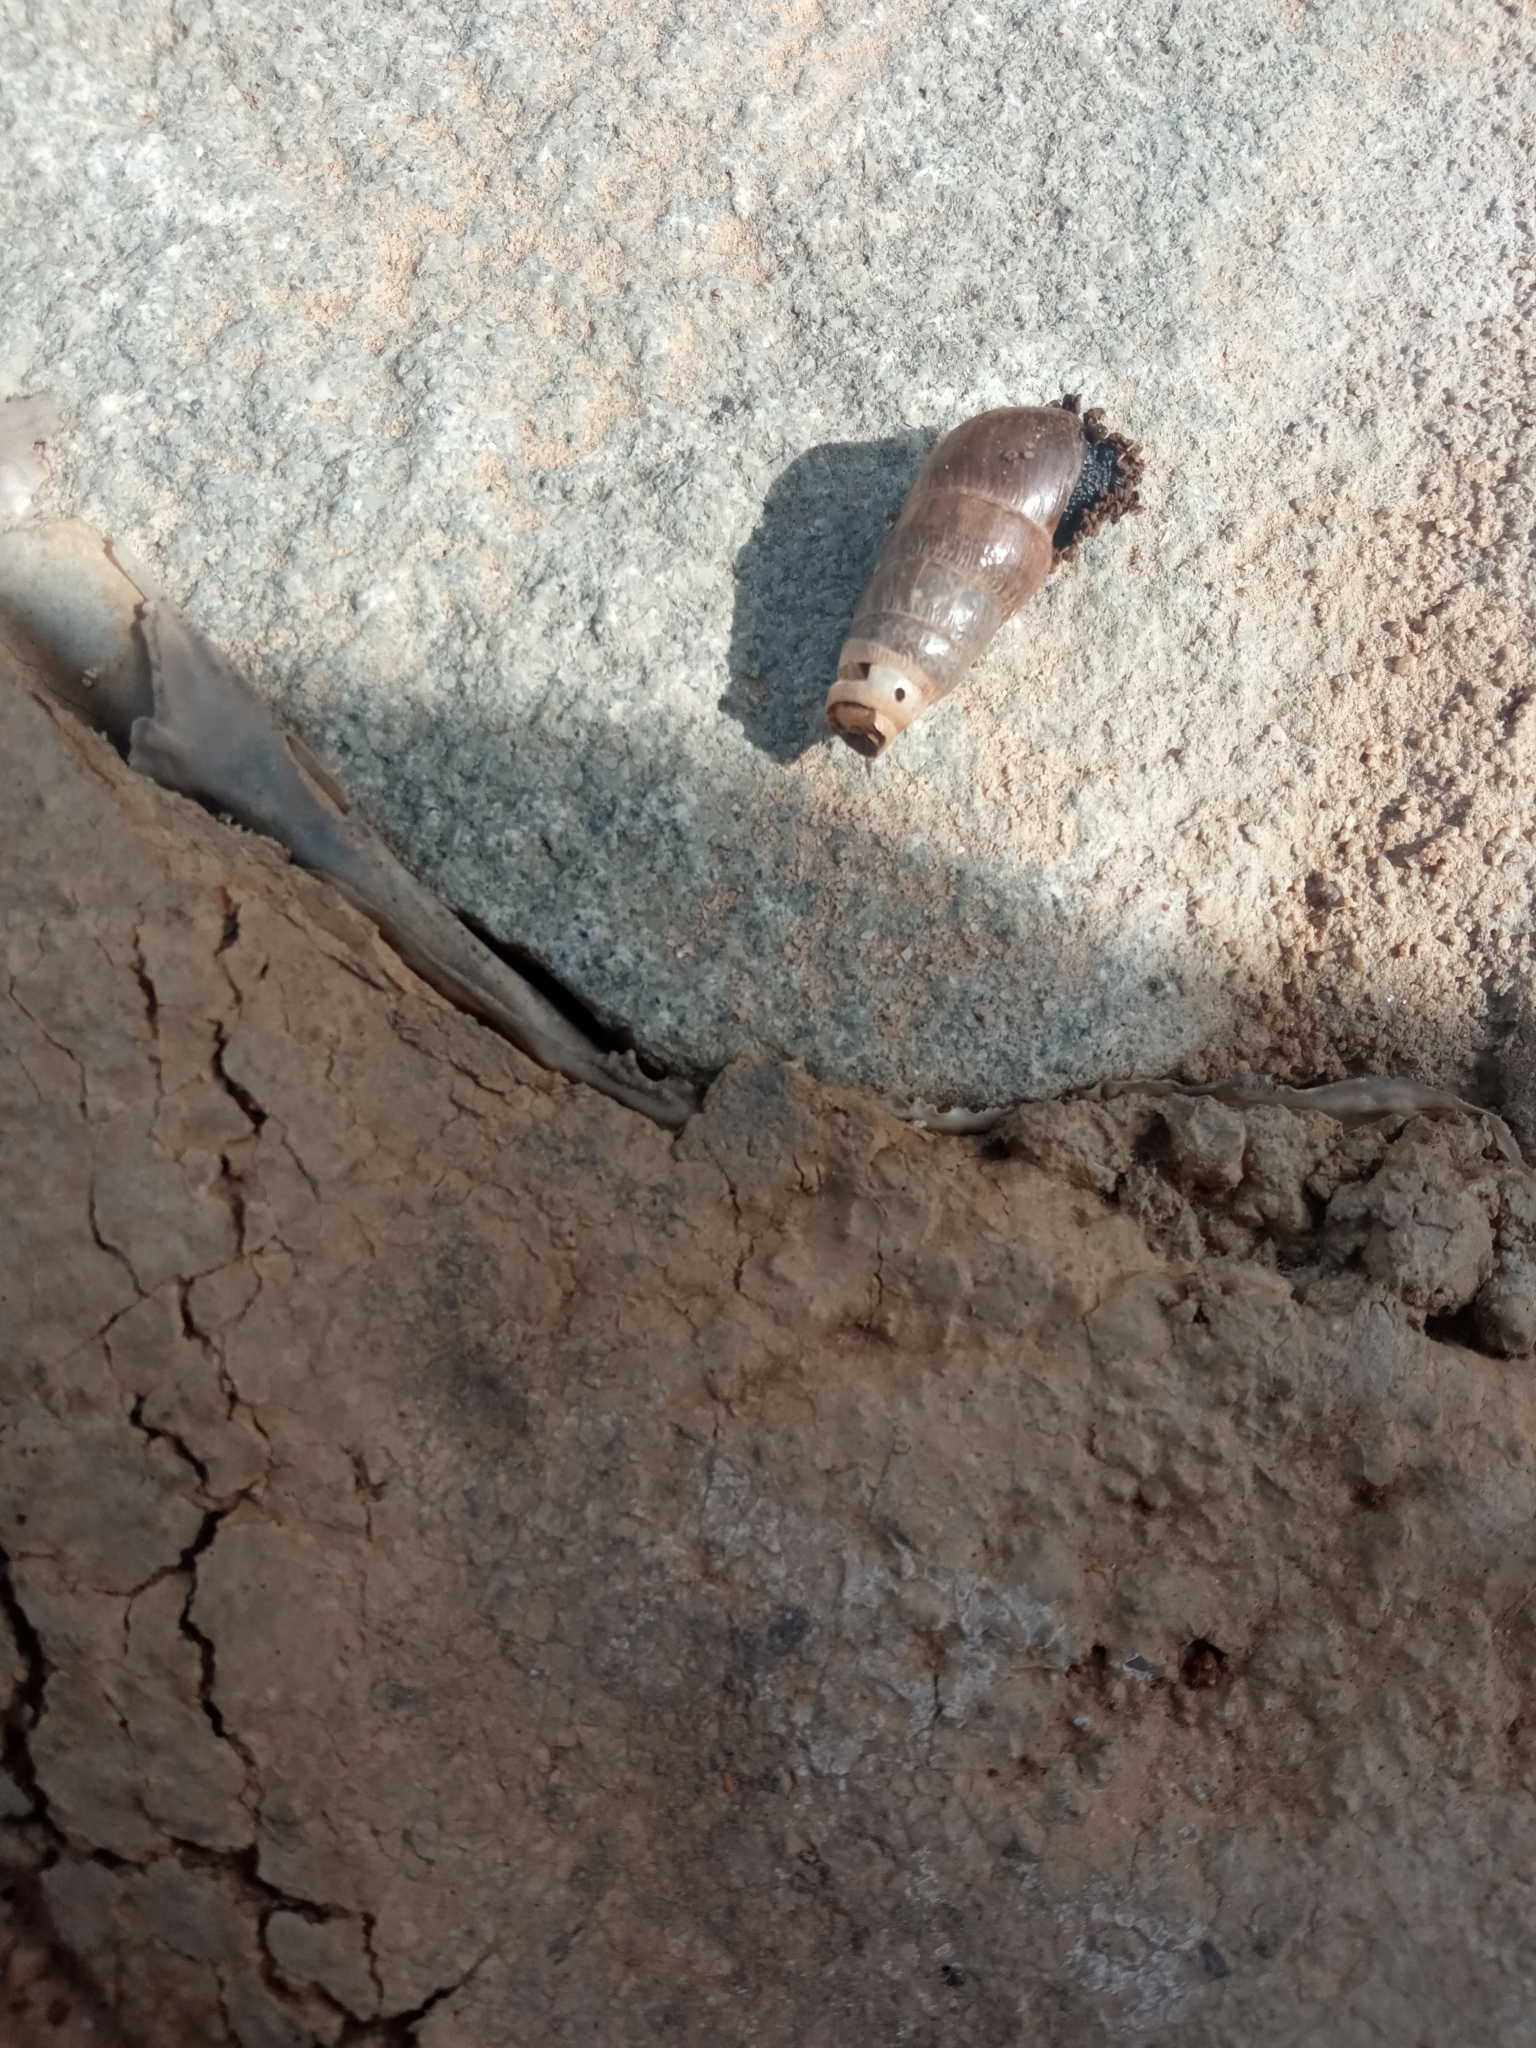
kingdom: Animalia
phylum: Mollusca
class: Gastropoda
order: Stylommatophora
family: Achatinidae
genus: Rumina
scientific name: Rumina decollata
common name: Decollate snail
